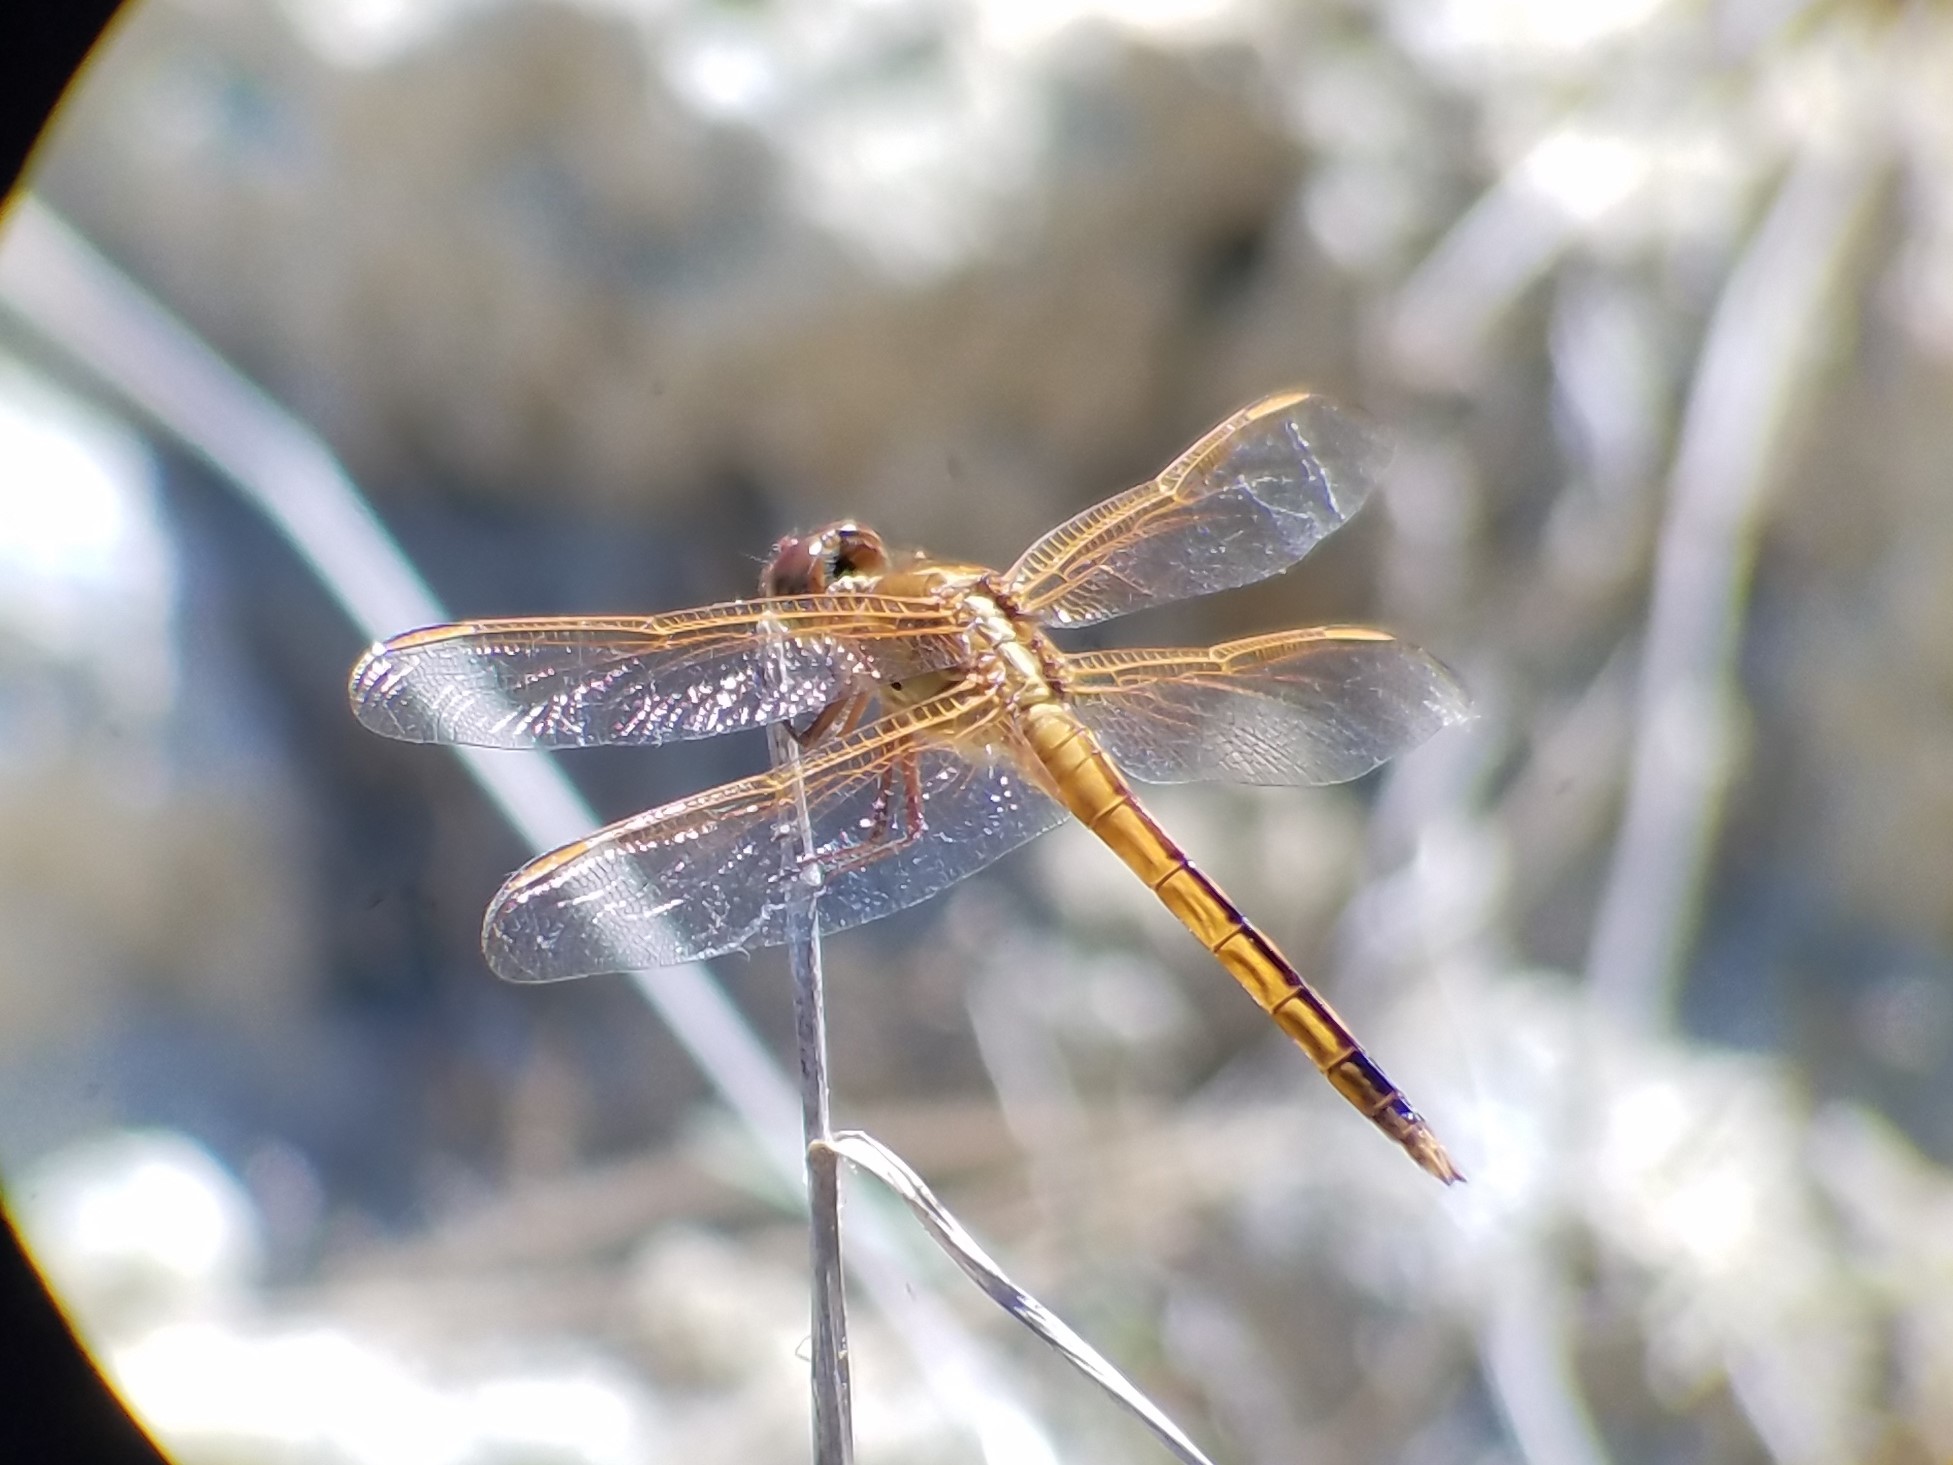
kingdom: Animalia
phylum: Arthropoda
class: Insecta
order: Odonata
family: Libellulidae
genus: Libellula
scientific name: Libellula needhami
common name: Needham's skimmer
